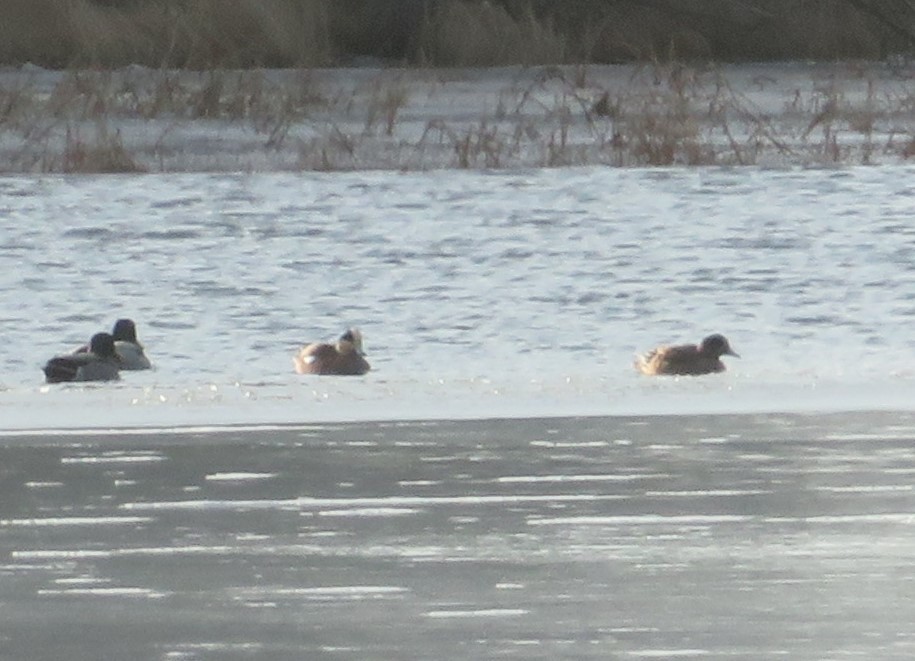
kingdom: Animalia
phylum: Chordata
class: Aves
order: Anseriformes
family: Anatidae
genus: Mareca
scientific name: Mareca americana
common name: American wigeon
